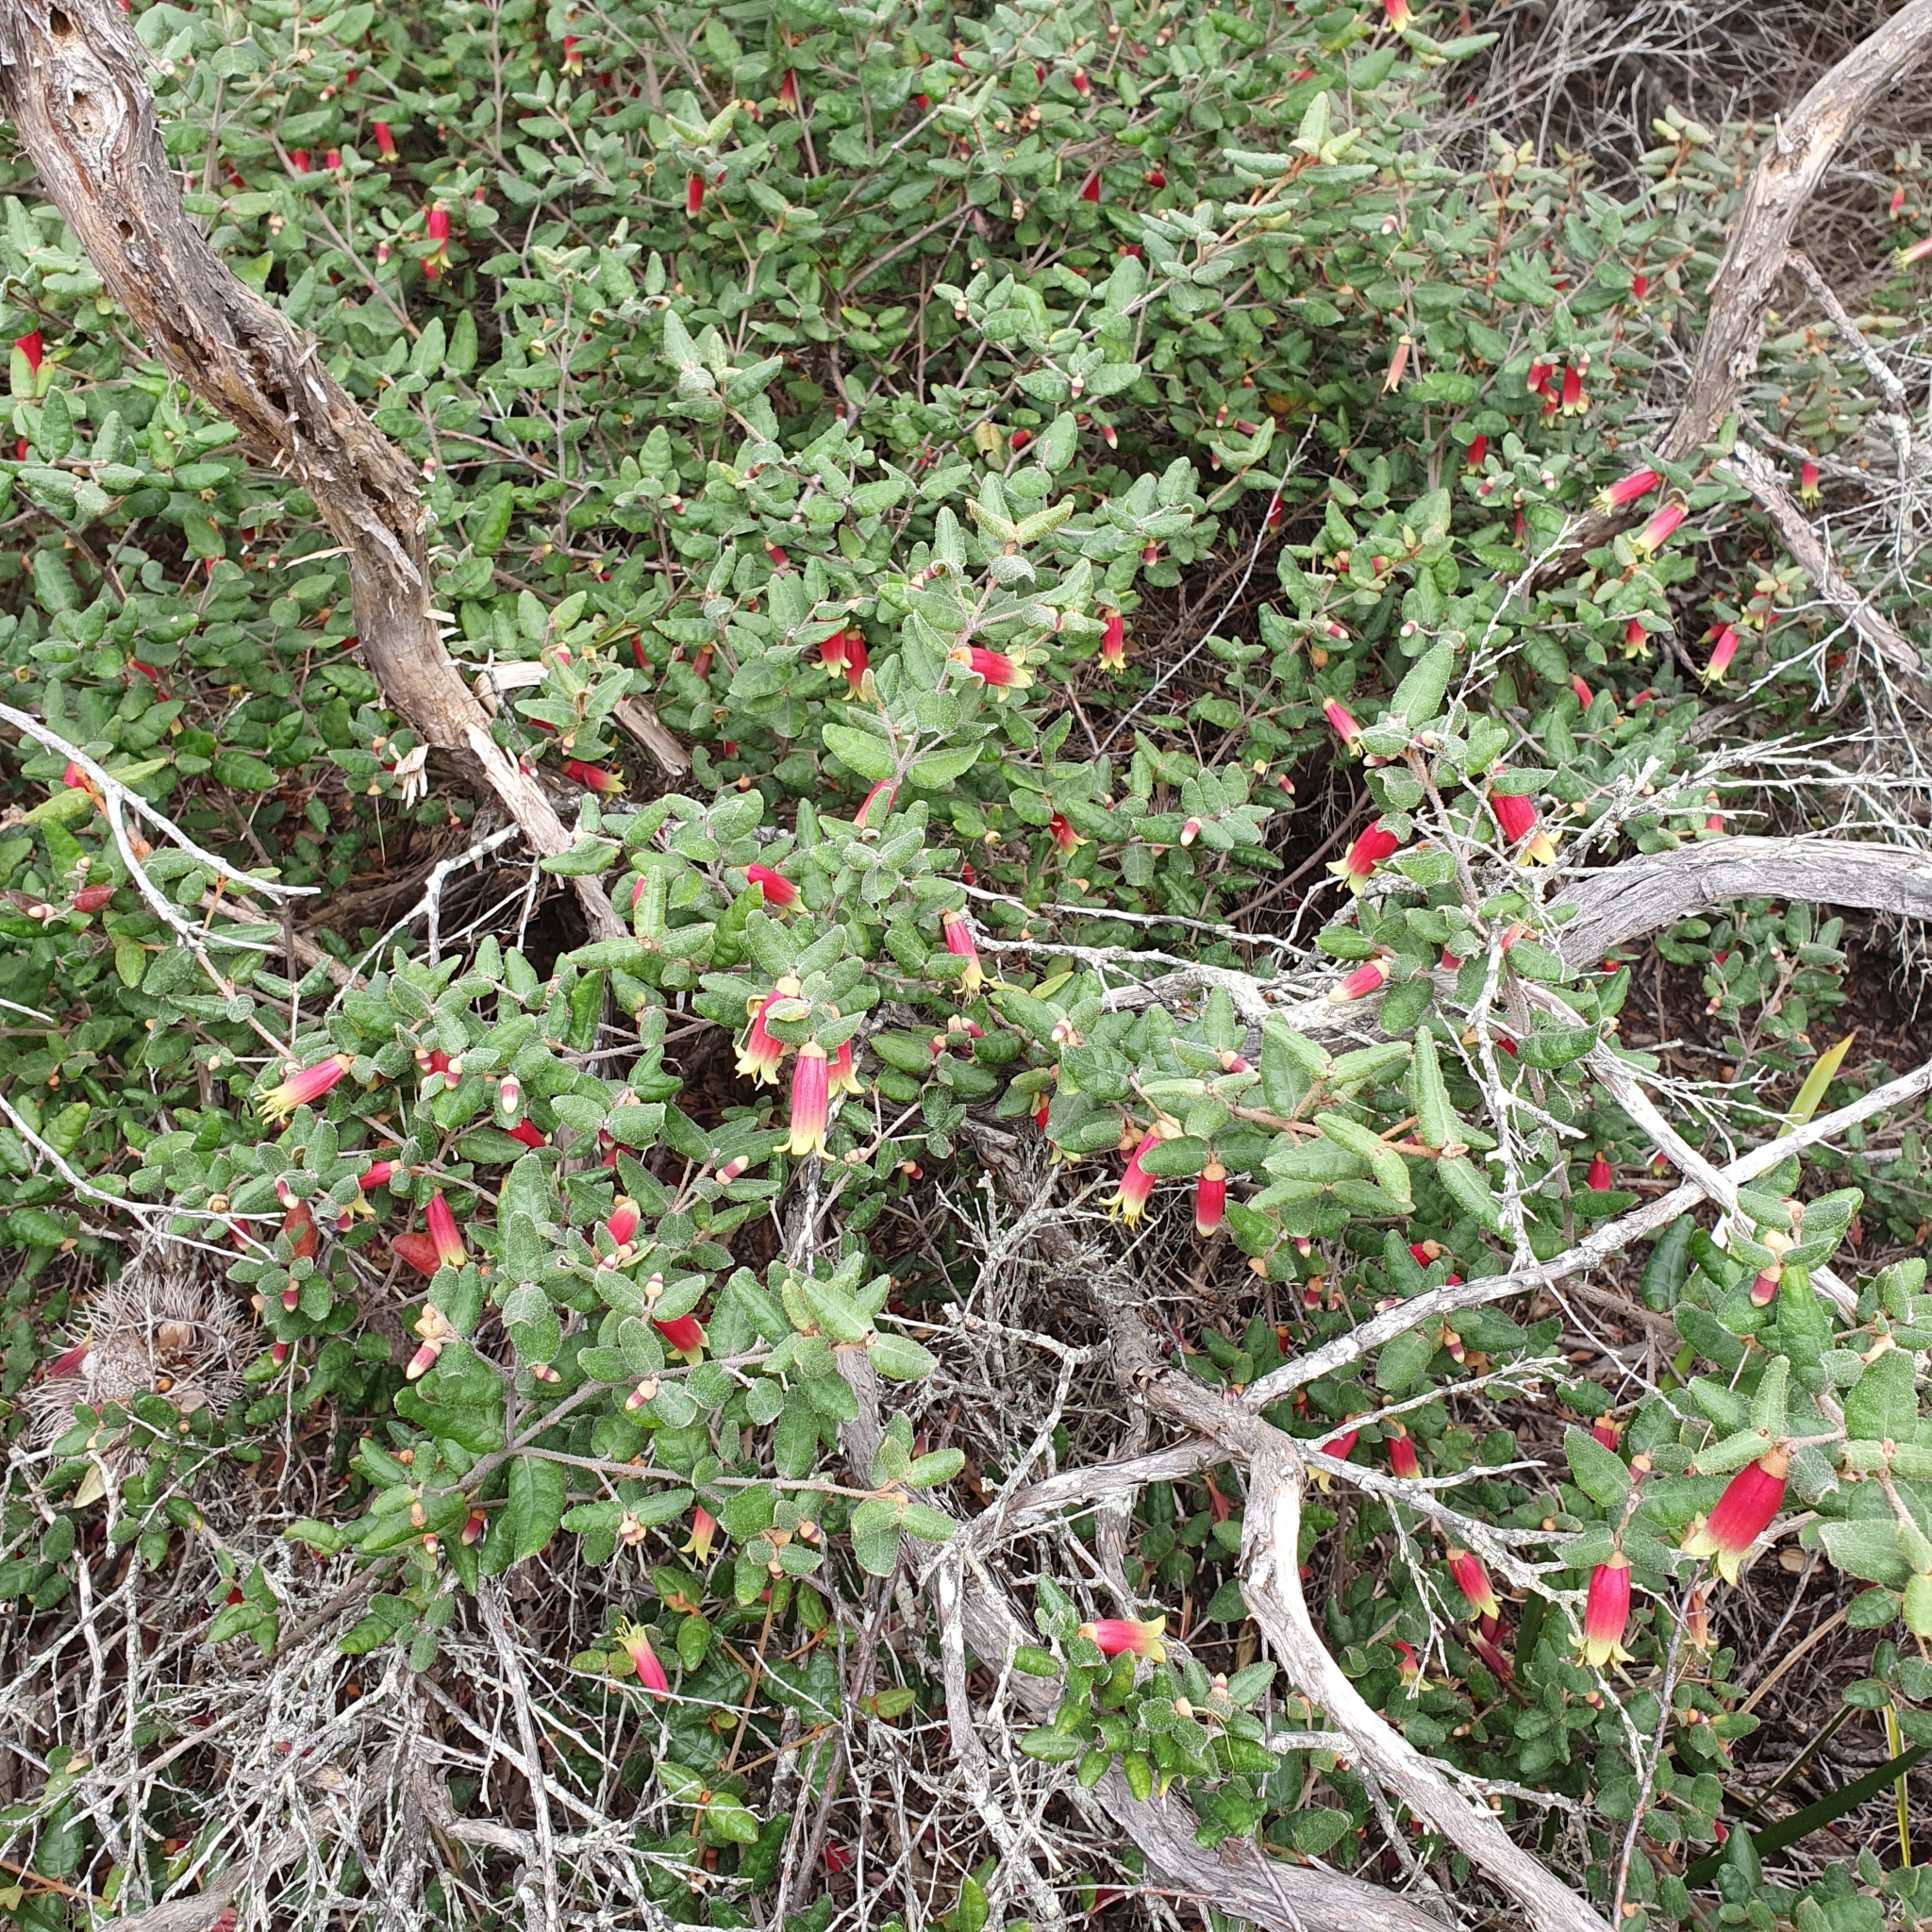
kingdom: Plantae
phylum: Tracheophyta
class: Magnoliopsida
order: Sapindales
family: Rutaceae
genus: Correa
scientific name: Correa reflexa
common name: Common correa
